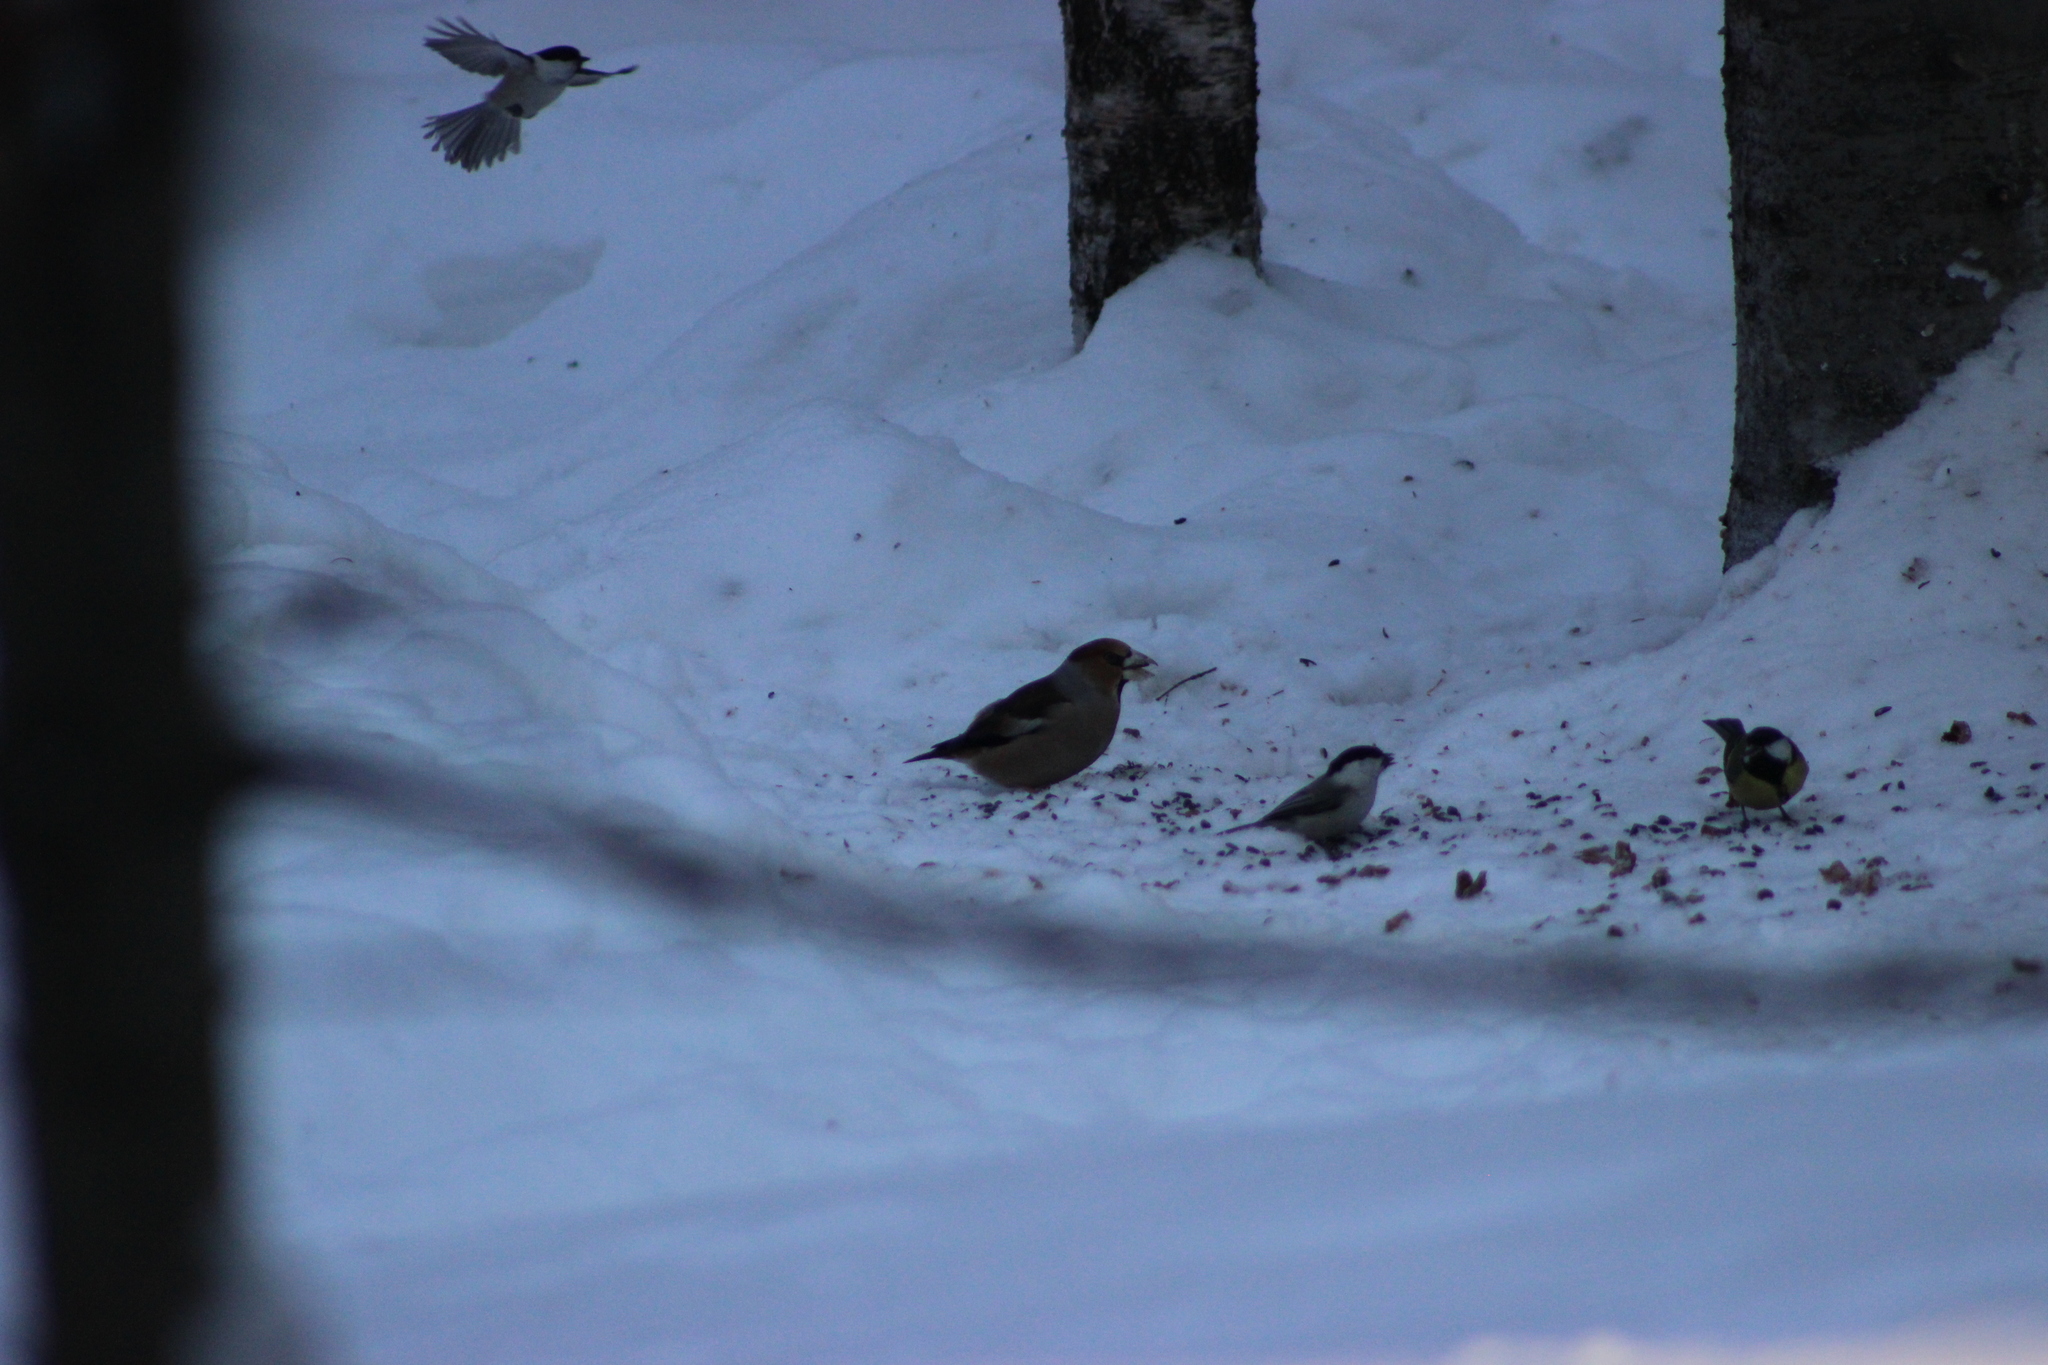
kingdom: Animalia
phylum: Chordata
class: Aves
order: Passeriformes
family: Fringillidae
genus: Coccothraustes
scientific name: Coccothraustes coccothraustes
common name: Hawfinch
